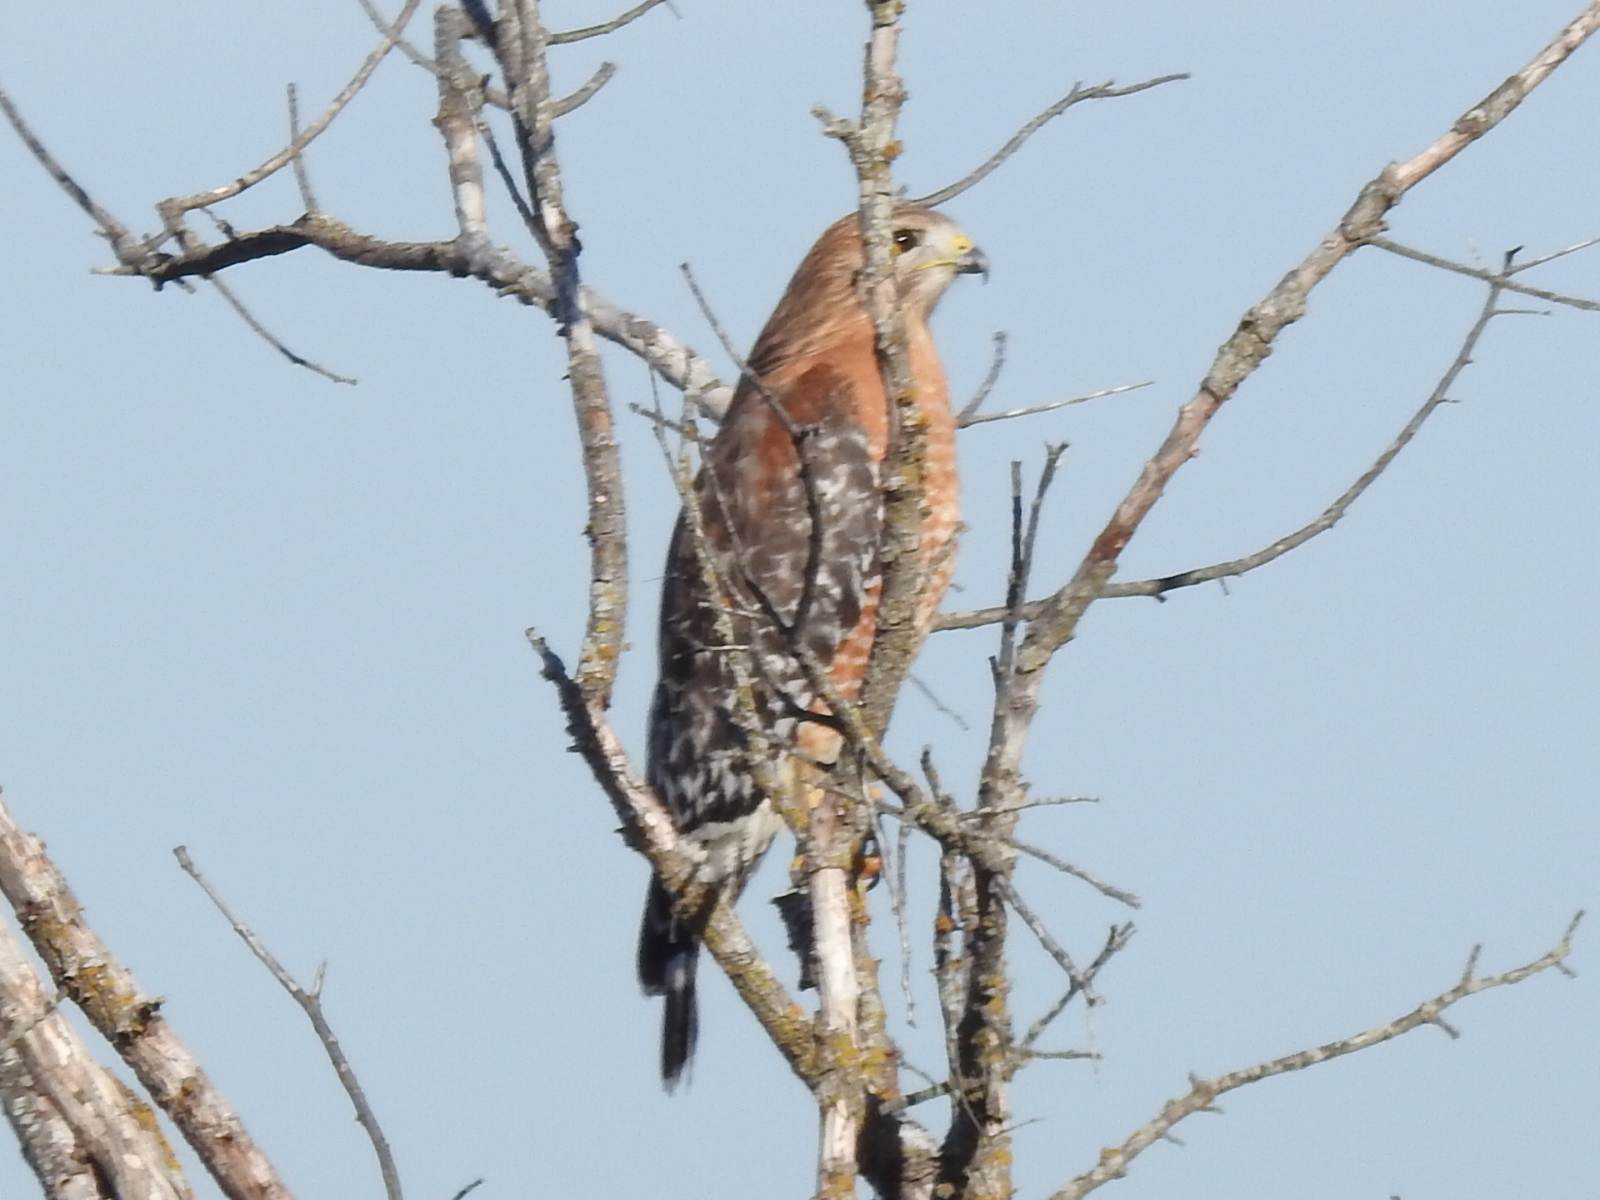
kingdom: Animalia
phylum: Chordata
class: Aves
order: Accipitriformes
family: Accipitridae
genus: Buteo
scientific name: Buteo lineatus
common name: Red-shouldered hawk
